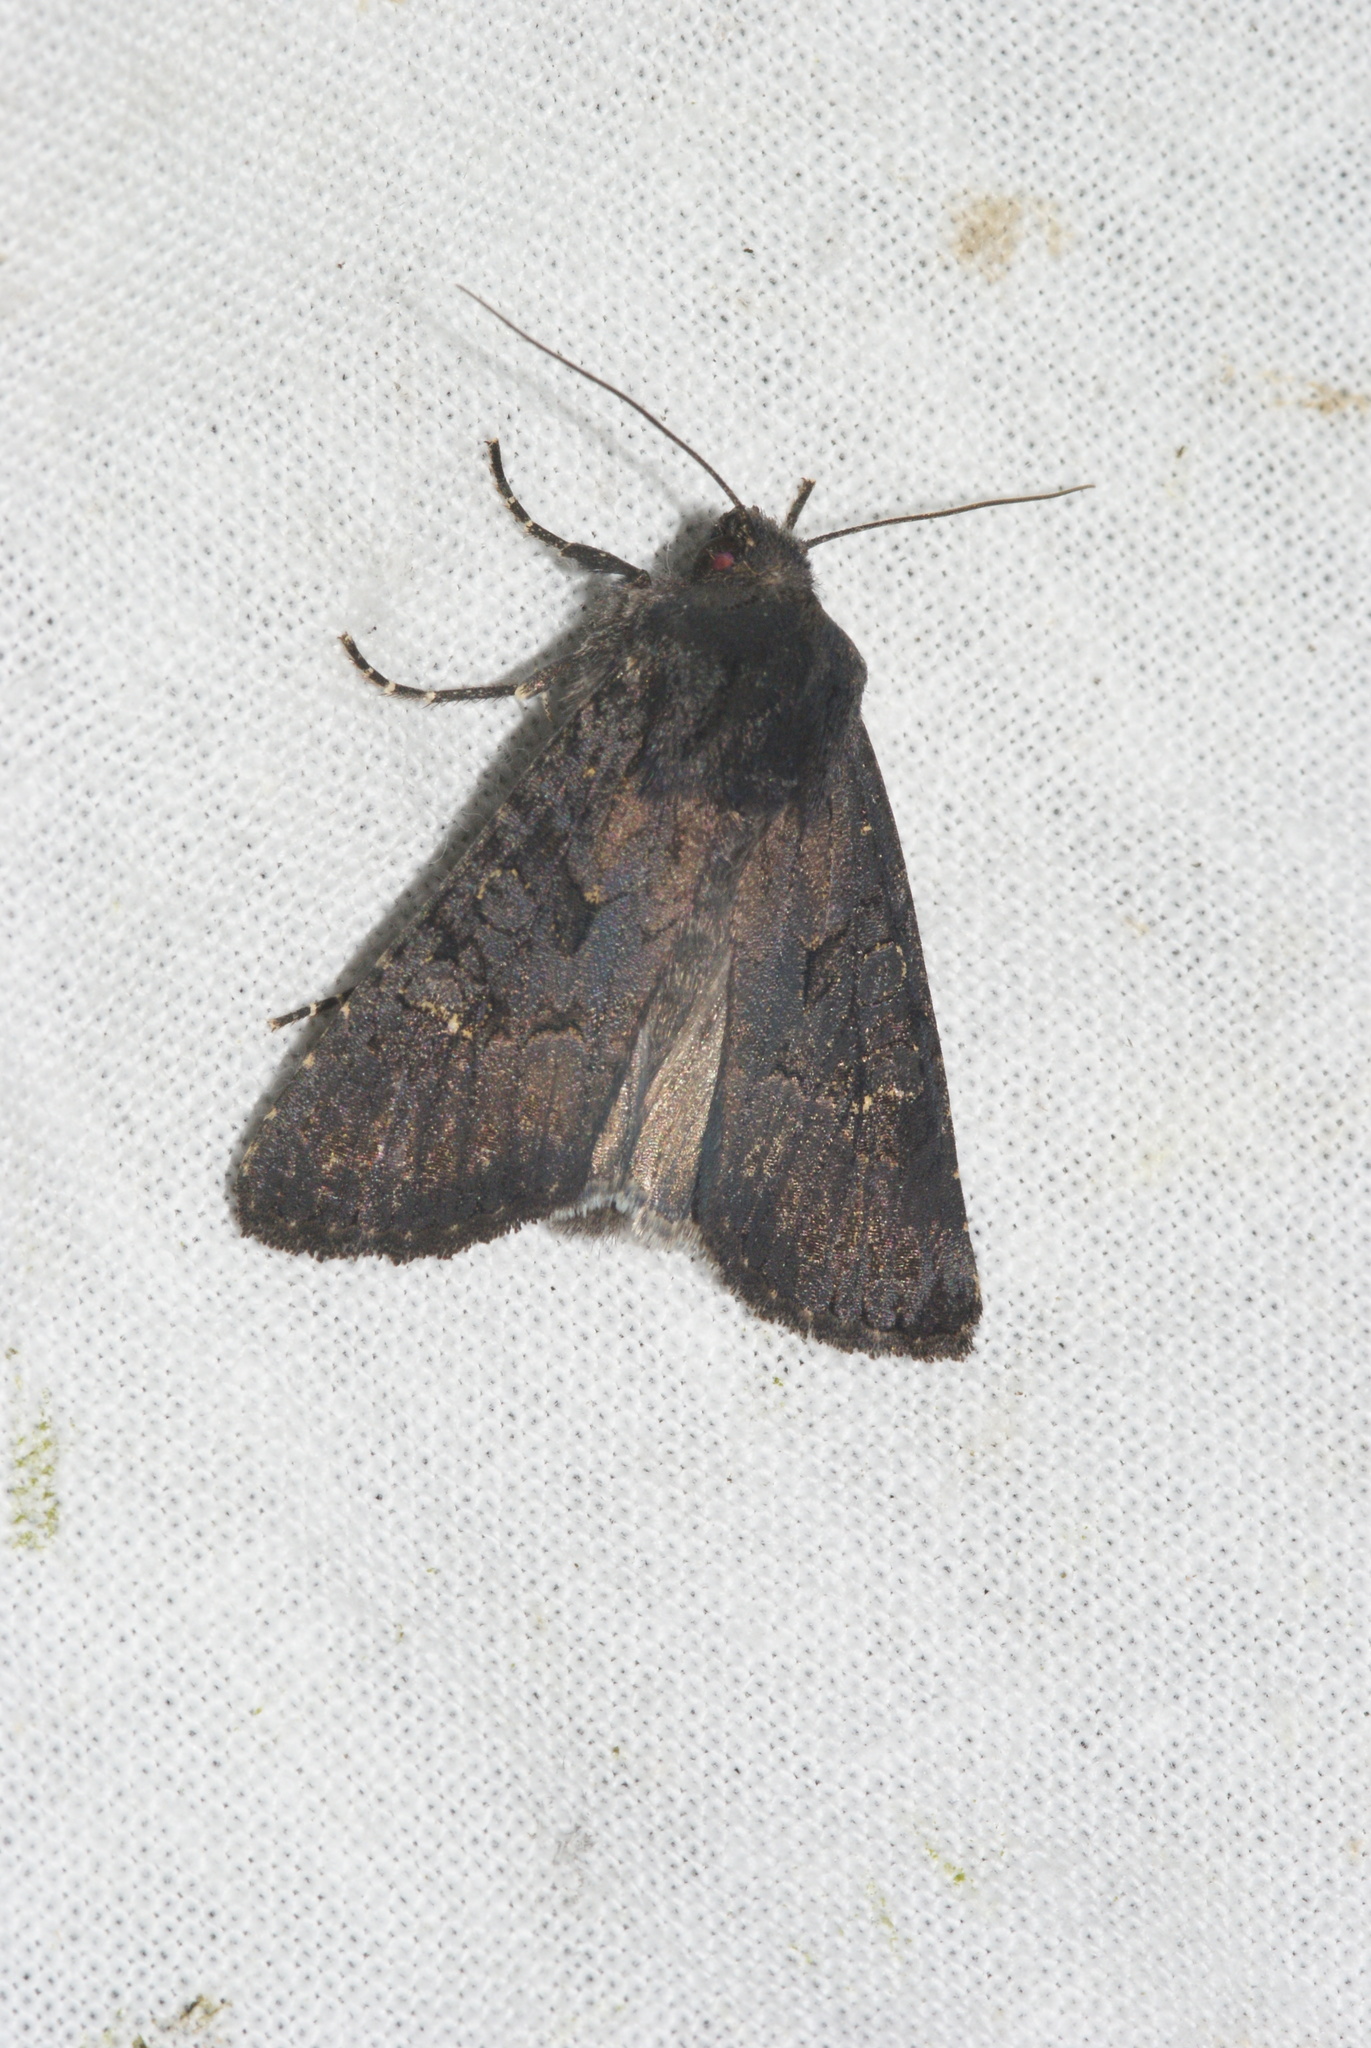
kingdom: Animalia
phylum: Arthropoda
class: Insecta
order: Lepidoptera
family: Noctuidae
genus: Aporophyla
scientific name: Aporophyla nigra
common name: Black rustic
